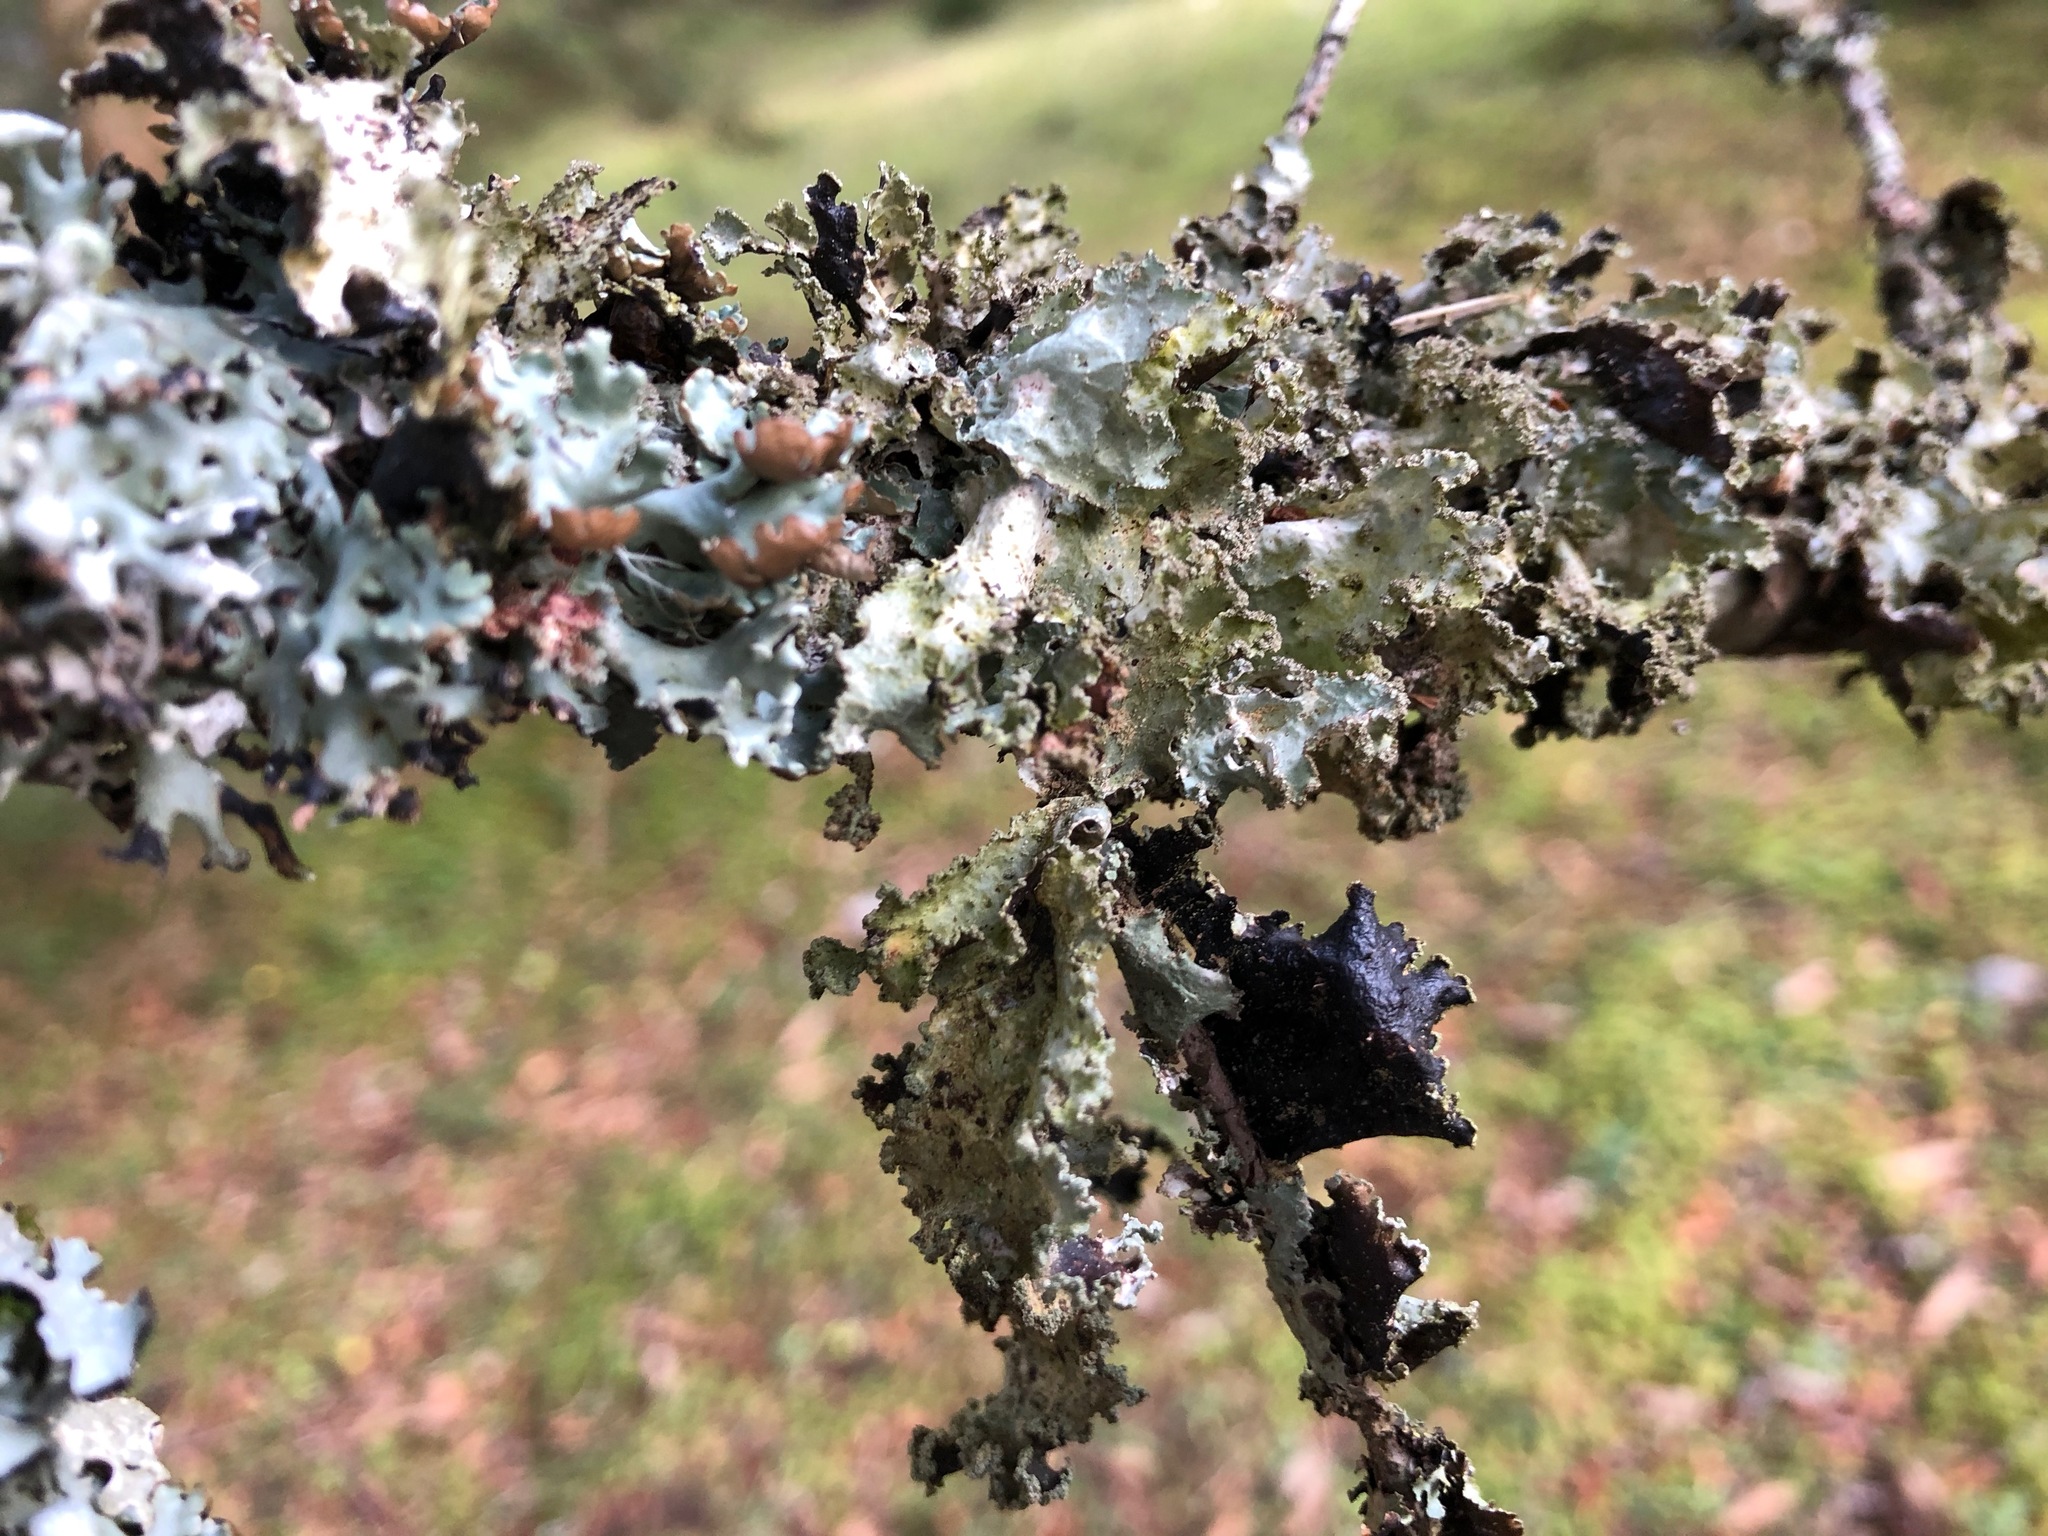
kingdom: Fungi
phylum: Ascomycota
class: Lecanoromycetes
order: Lecanorales
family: Parmeliaceae
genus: Platismatia
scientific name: Platismatia glauca
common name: Varied rag lichen
